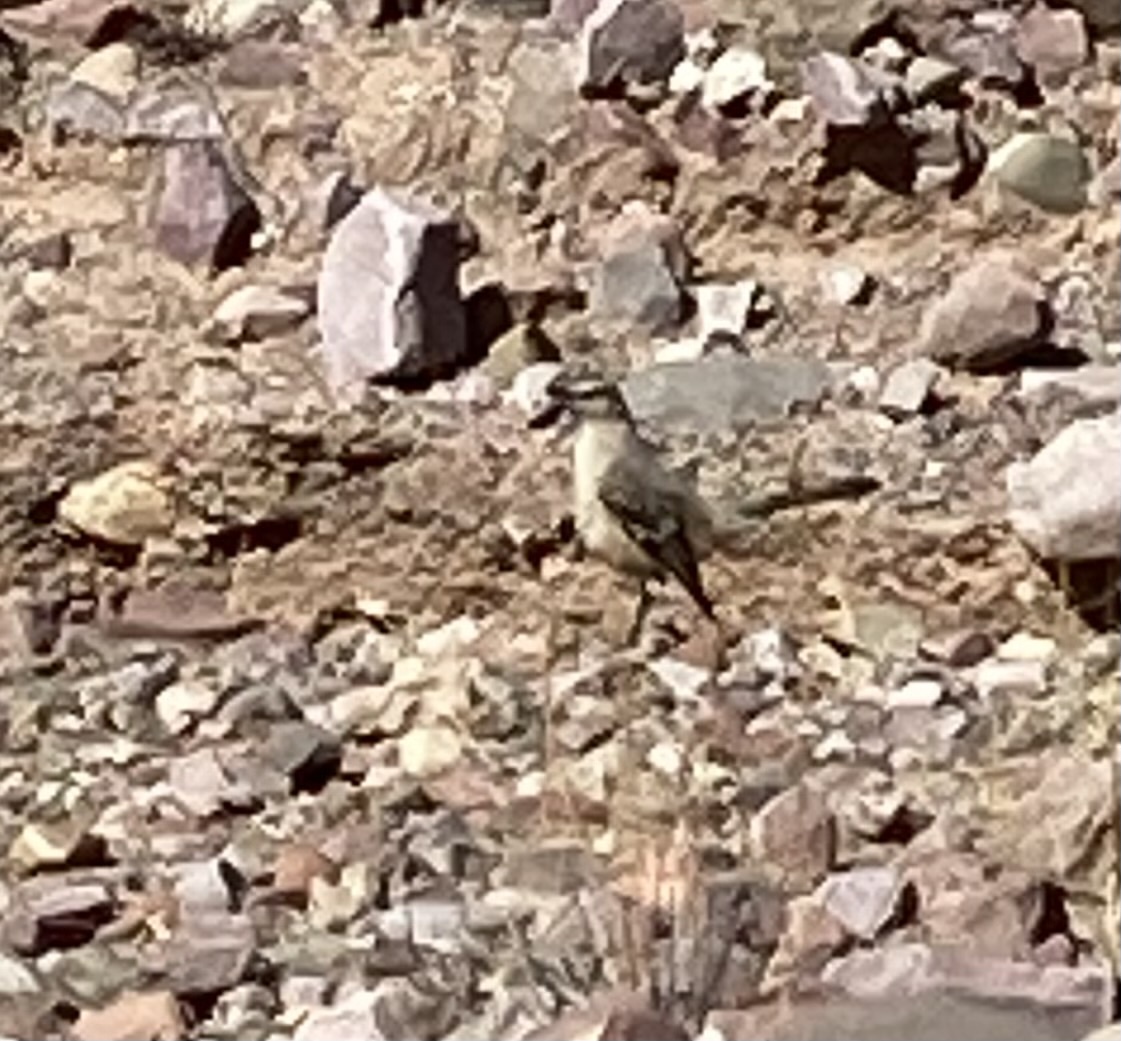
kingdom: Animalia
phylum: Chordata
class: Aves
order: Passeriformes
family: Mimidae
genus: Mimus
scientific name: Mimus patagonicus
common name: Patagonian mockingbird
